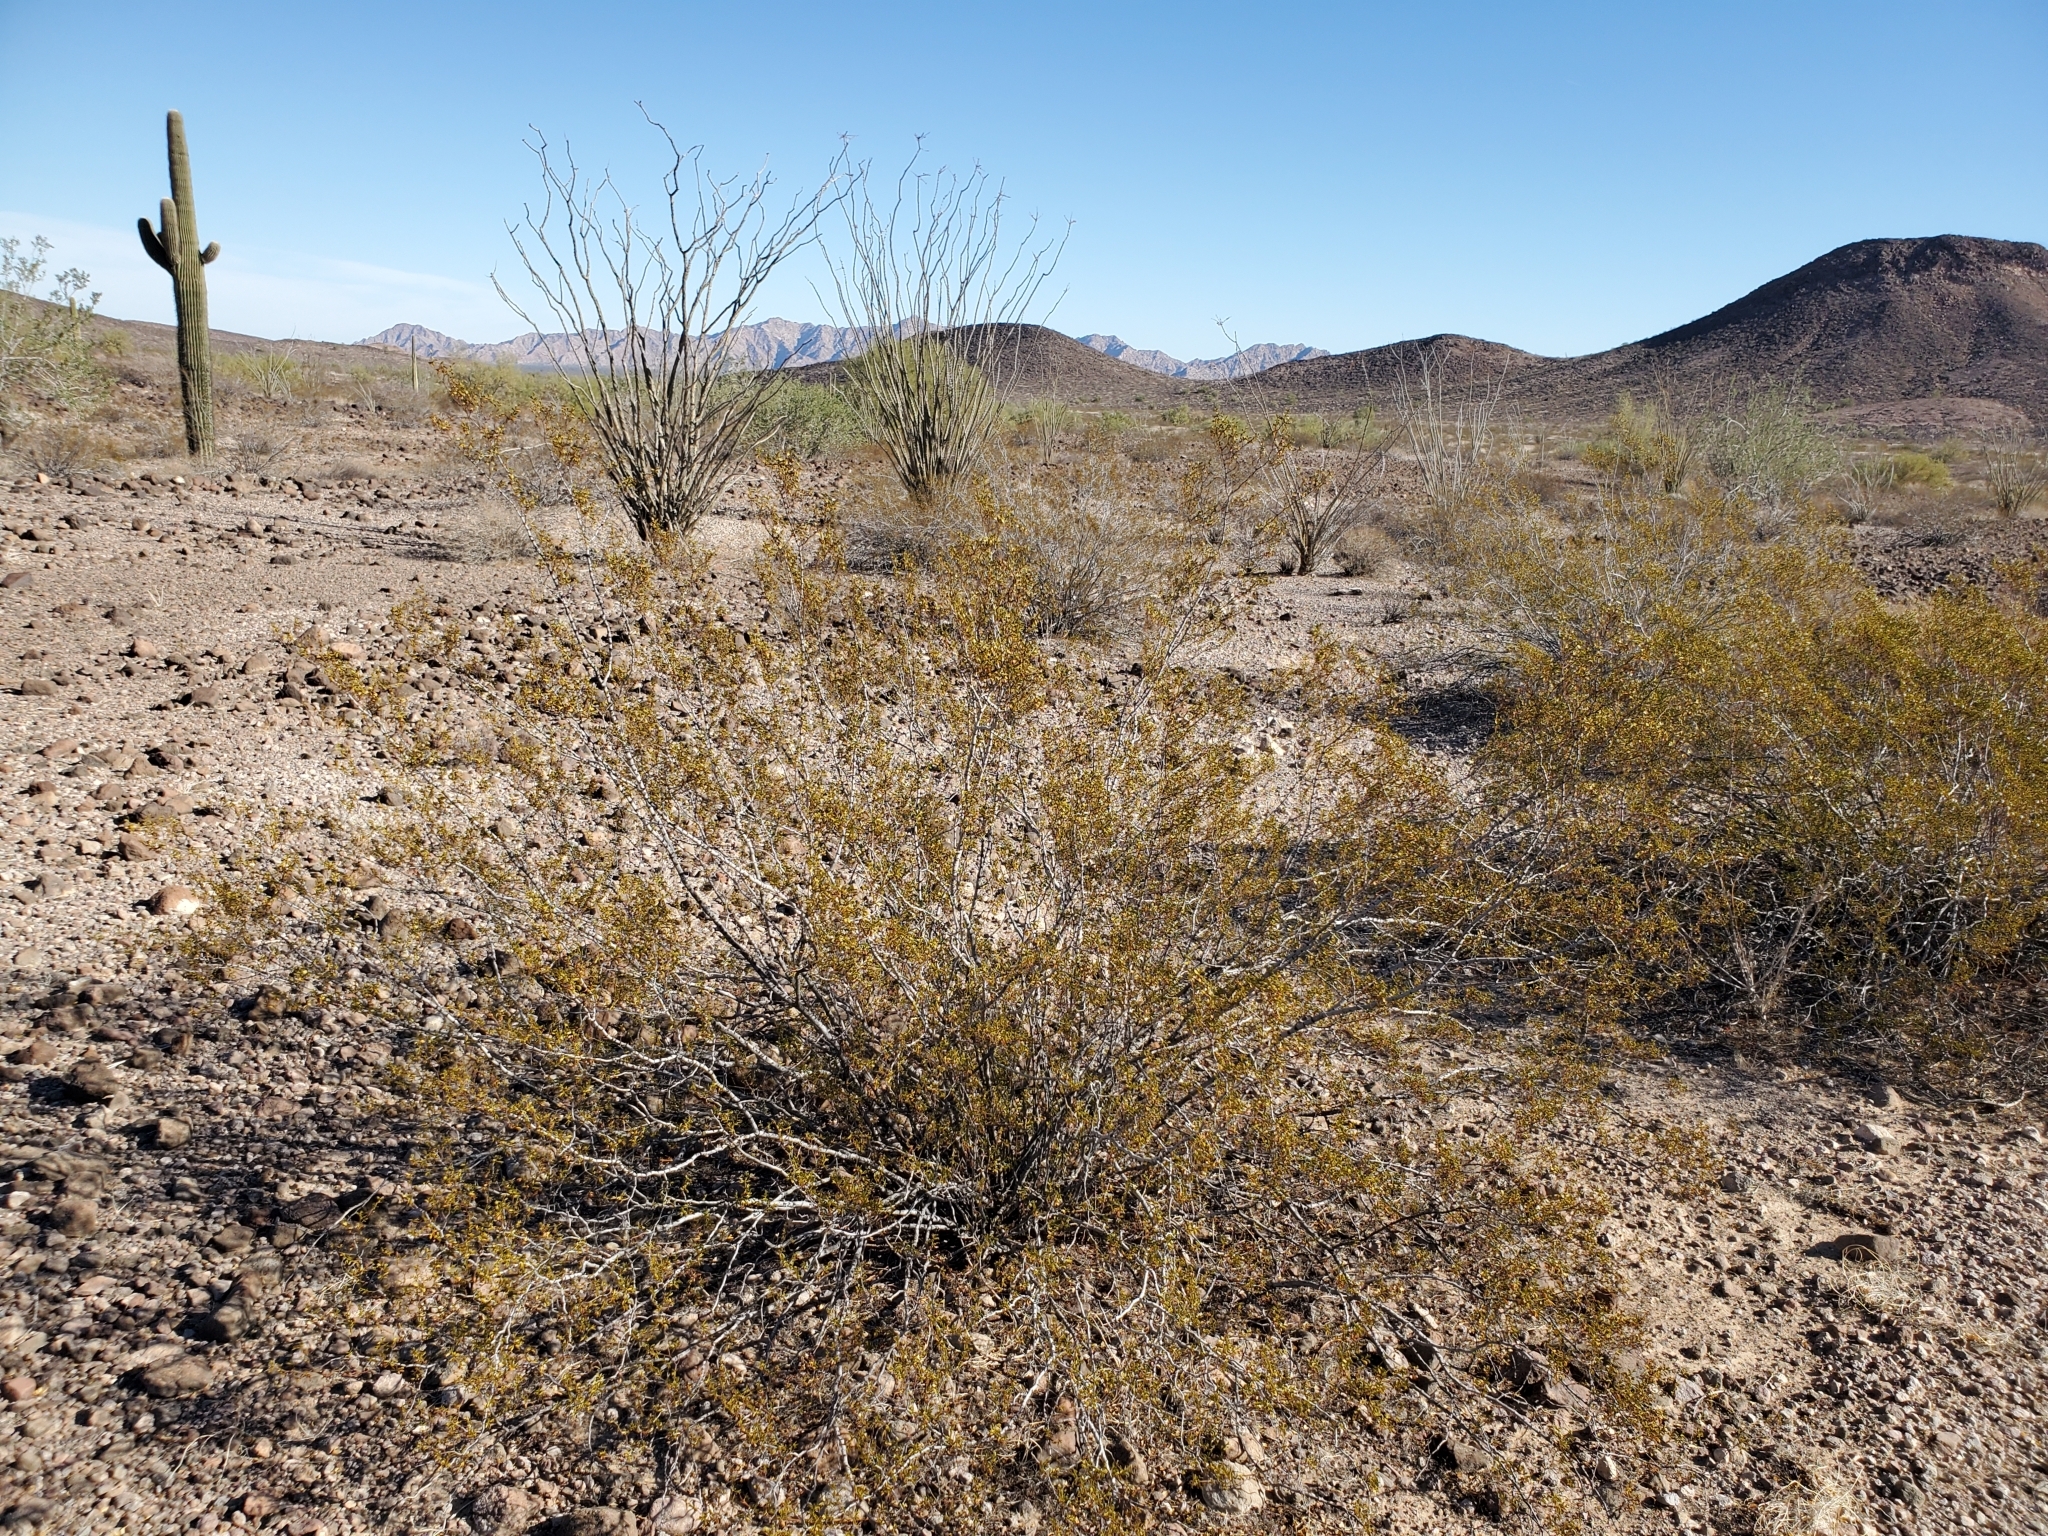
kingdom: Plantae
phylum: Tracheophyta
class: Magnoliopsida
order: Zygophyllales
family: Zygophyllaceae
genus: Larrea
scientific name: Larrea tridentata
